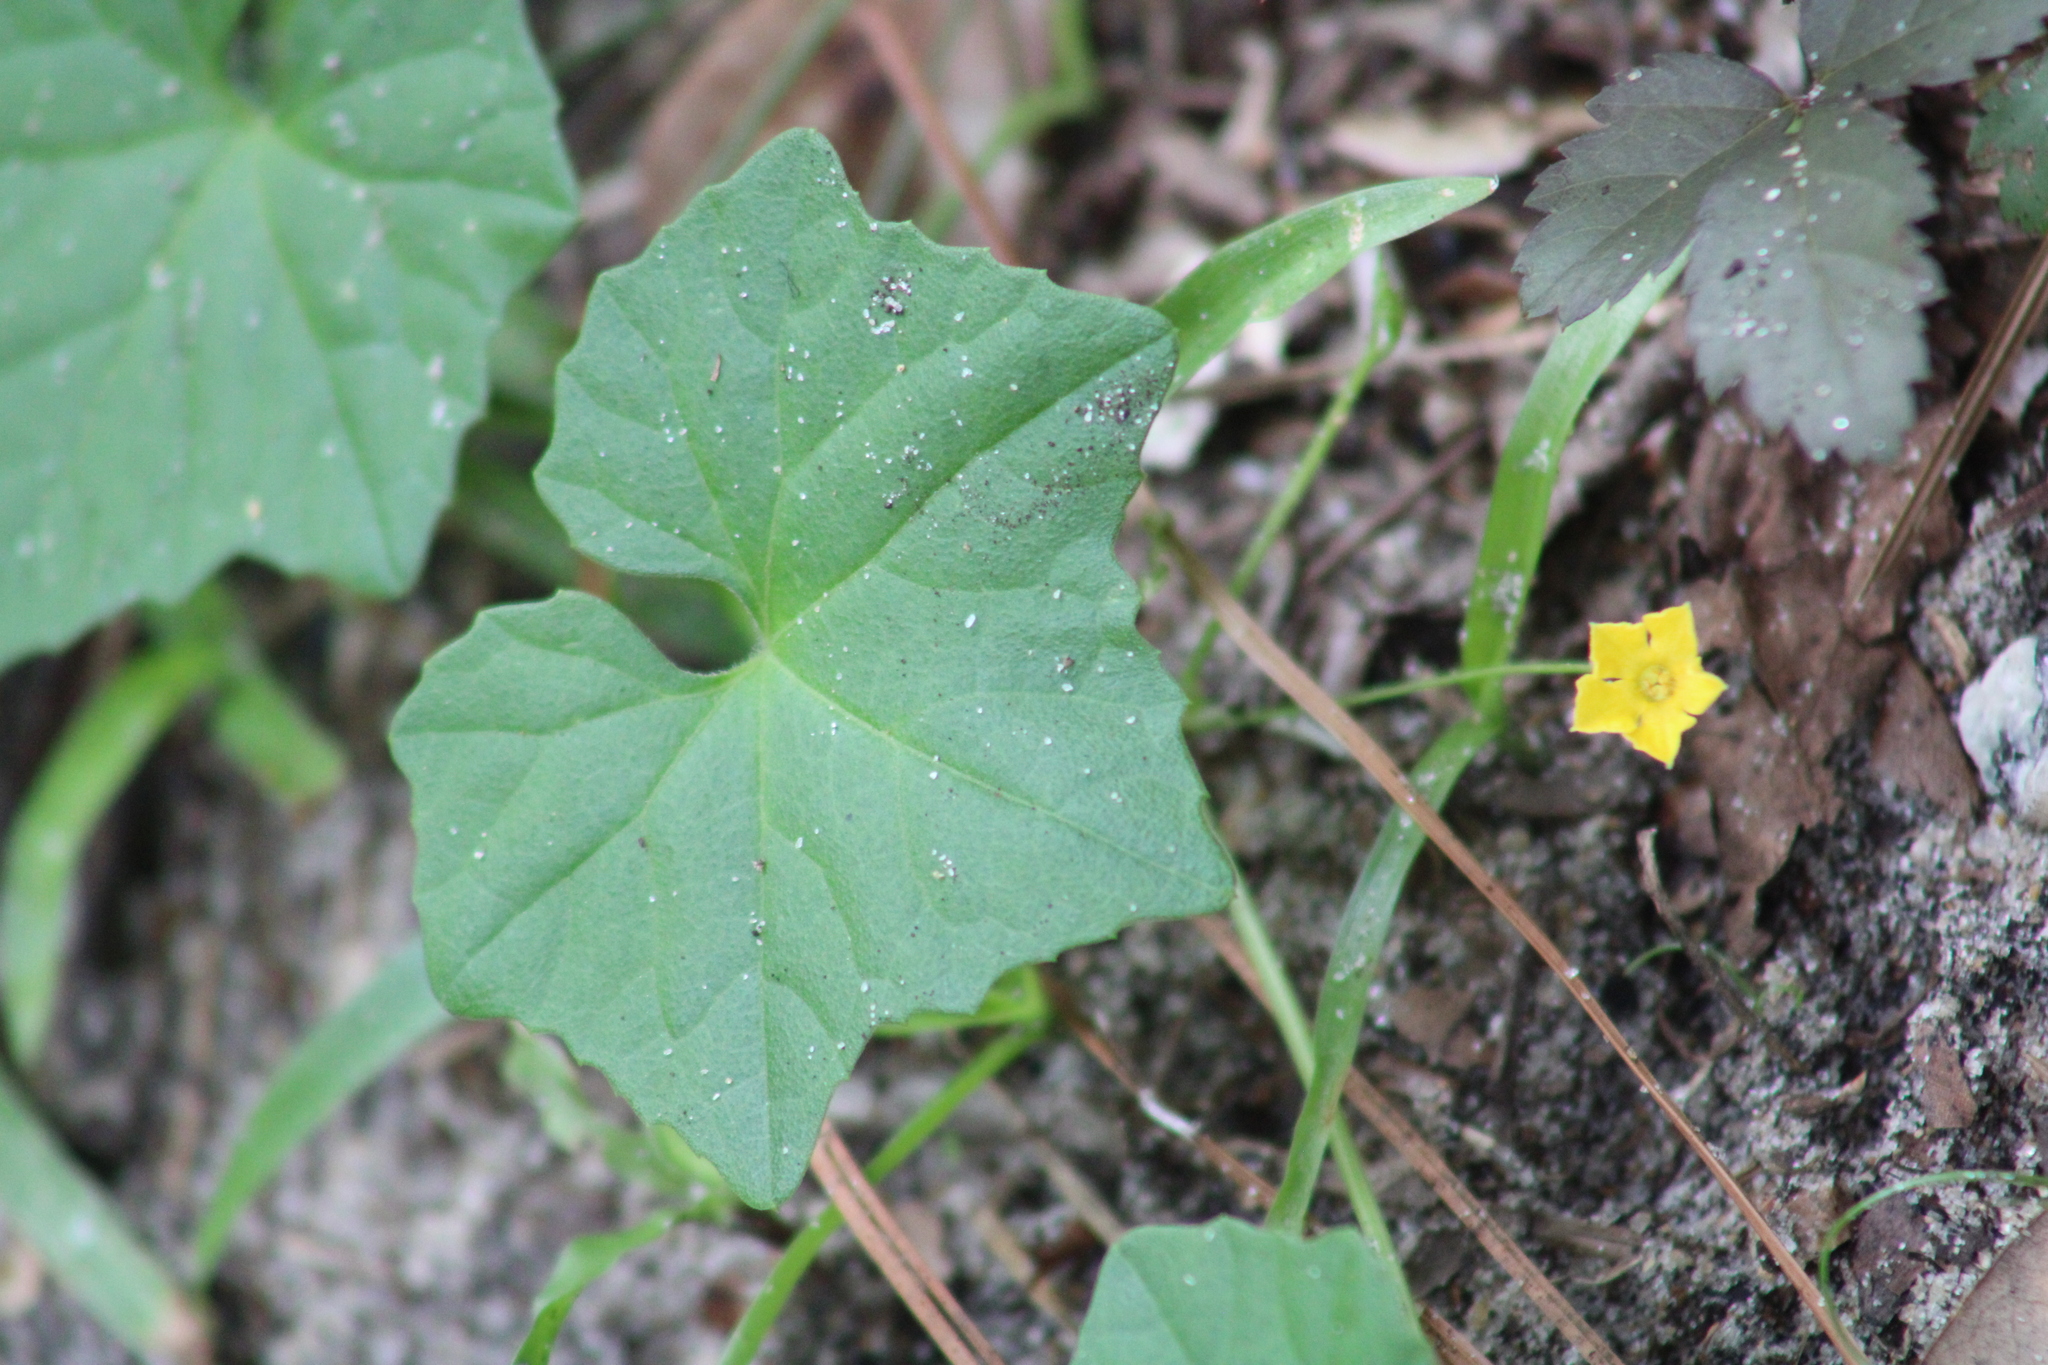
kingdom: Plantae
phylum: Tracheophyta
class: Magnoliopsida
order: Cucurbitales
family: Cucurbitaceae
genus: Melothria
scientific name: Melothria pendula
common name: Creeping-cucumber
